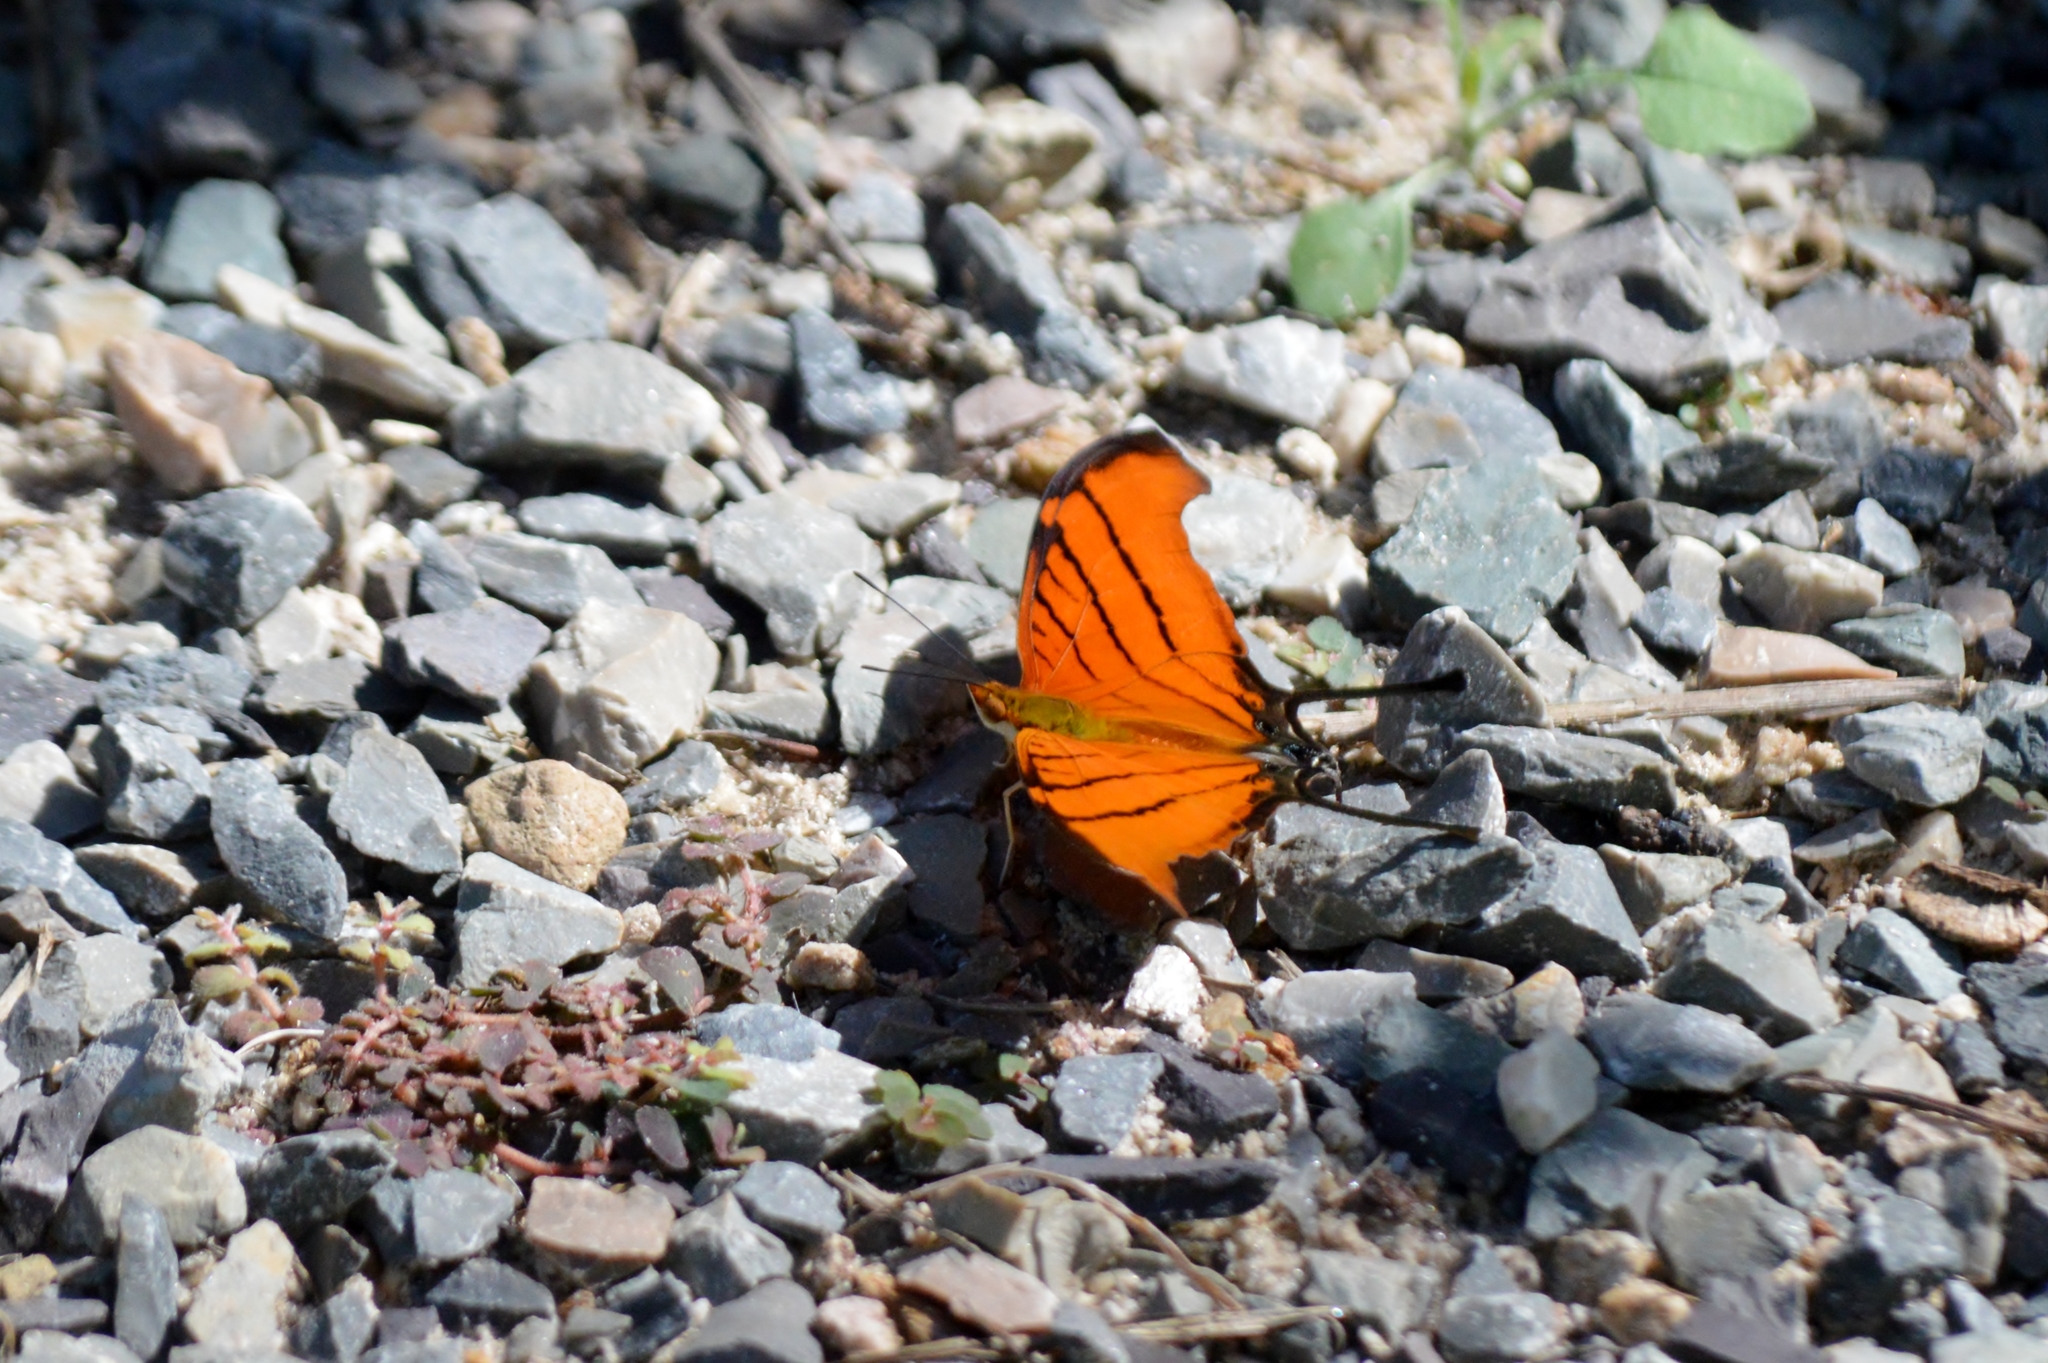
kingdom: Animalia
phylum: Arthropoda
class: Insecta
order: Lepidoptera
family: Nymphalidae
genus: Marpesia
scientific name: Marpesia petreus
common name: Red dagger wing
